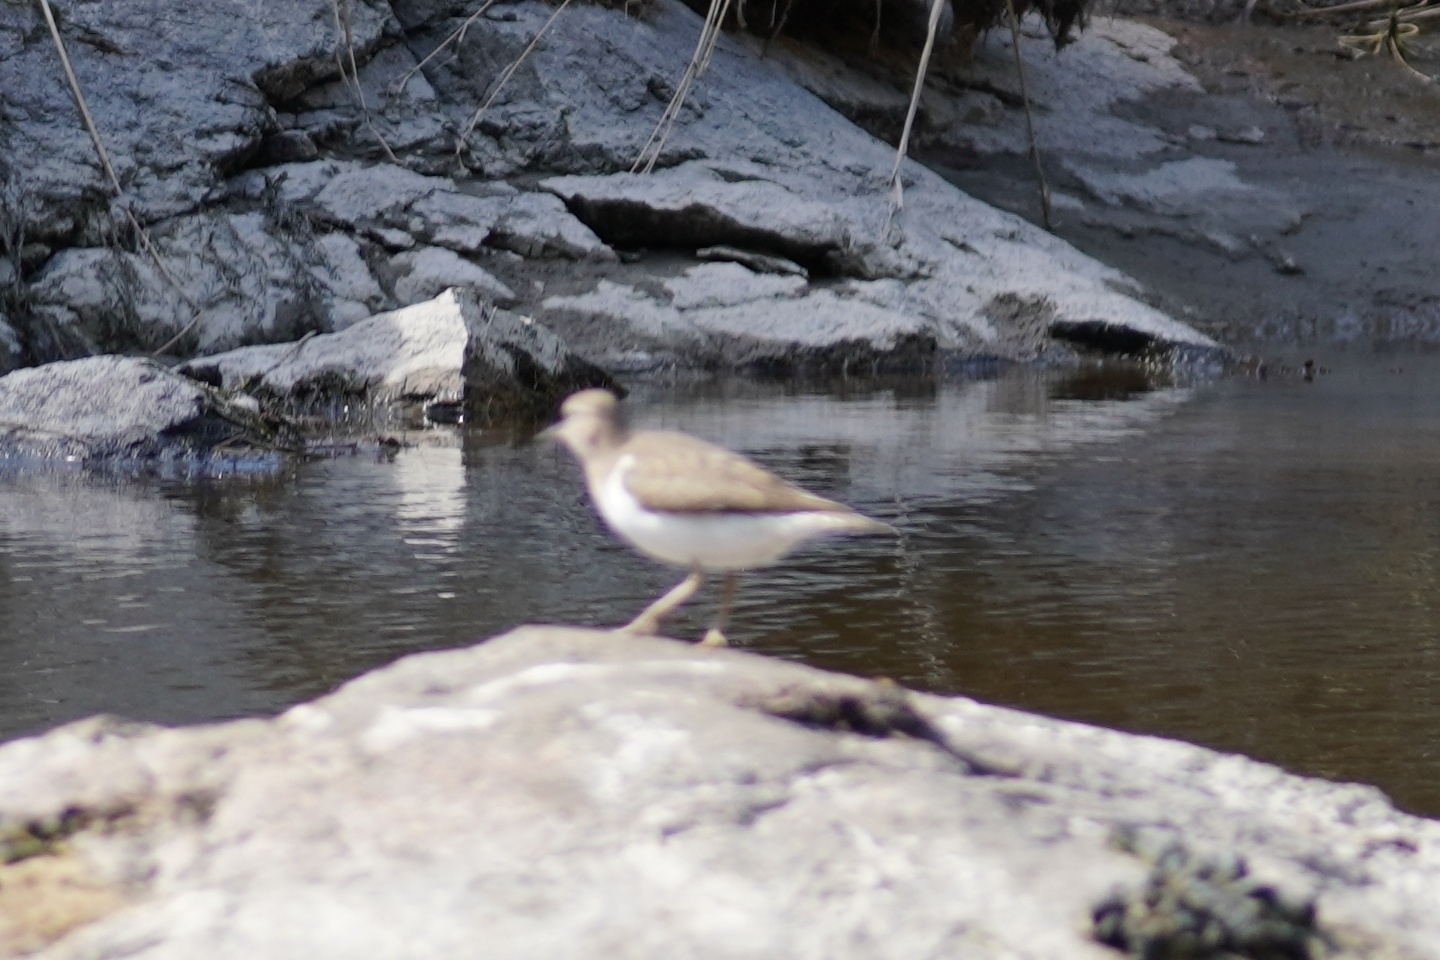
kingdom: Animalia
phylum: Chordata
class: Aves
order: Charadriiformes
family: Scolopacidae
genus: Actitis
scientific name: Actitis hypoleucos
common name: Common sandpiper
